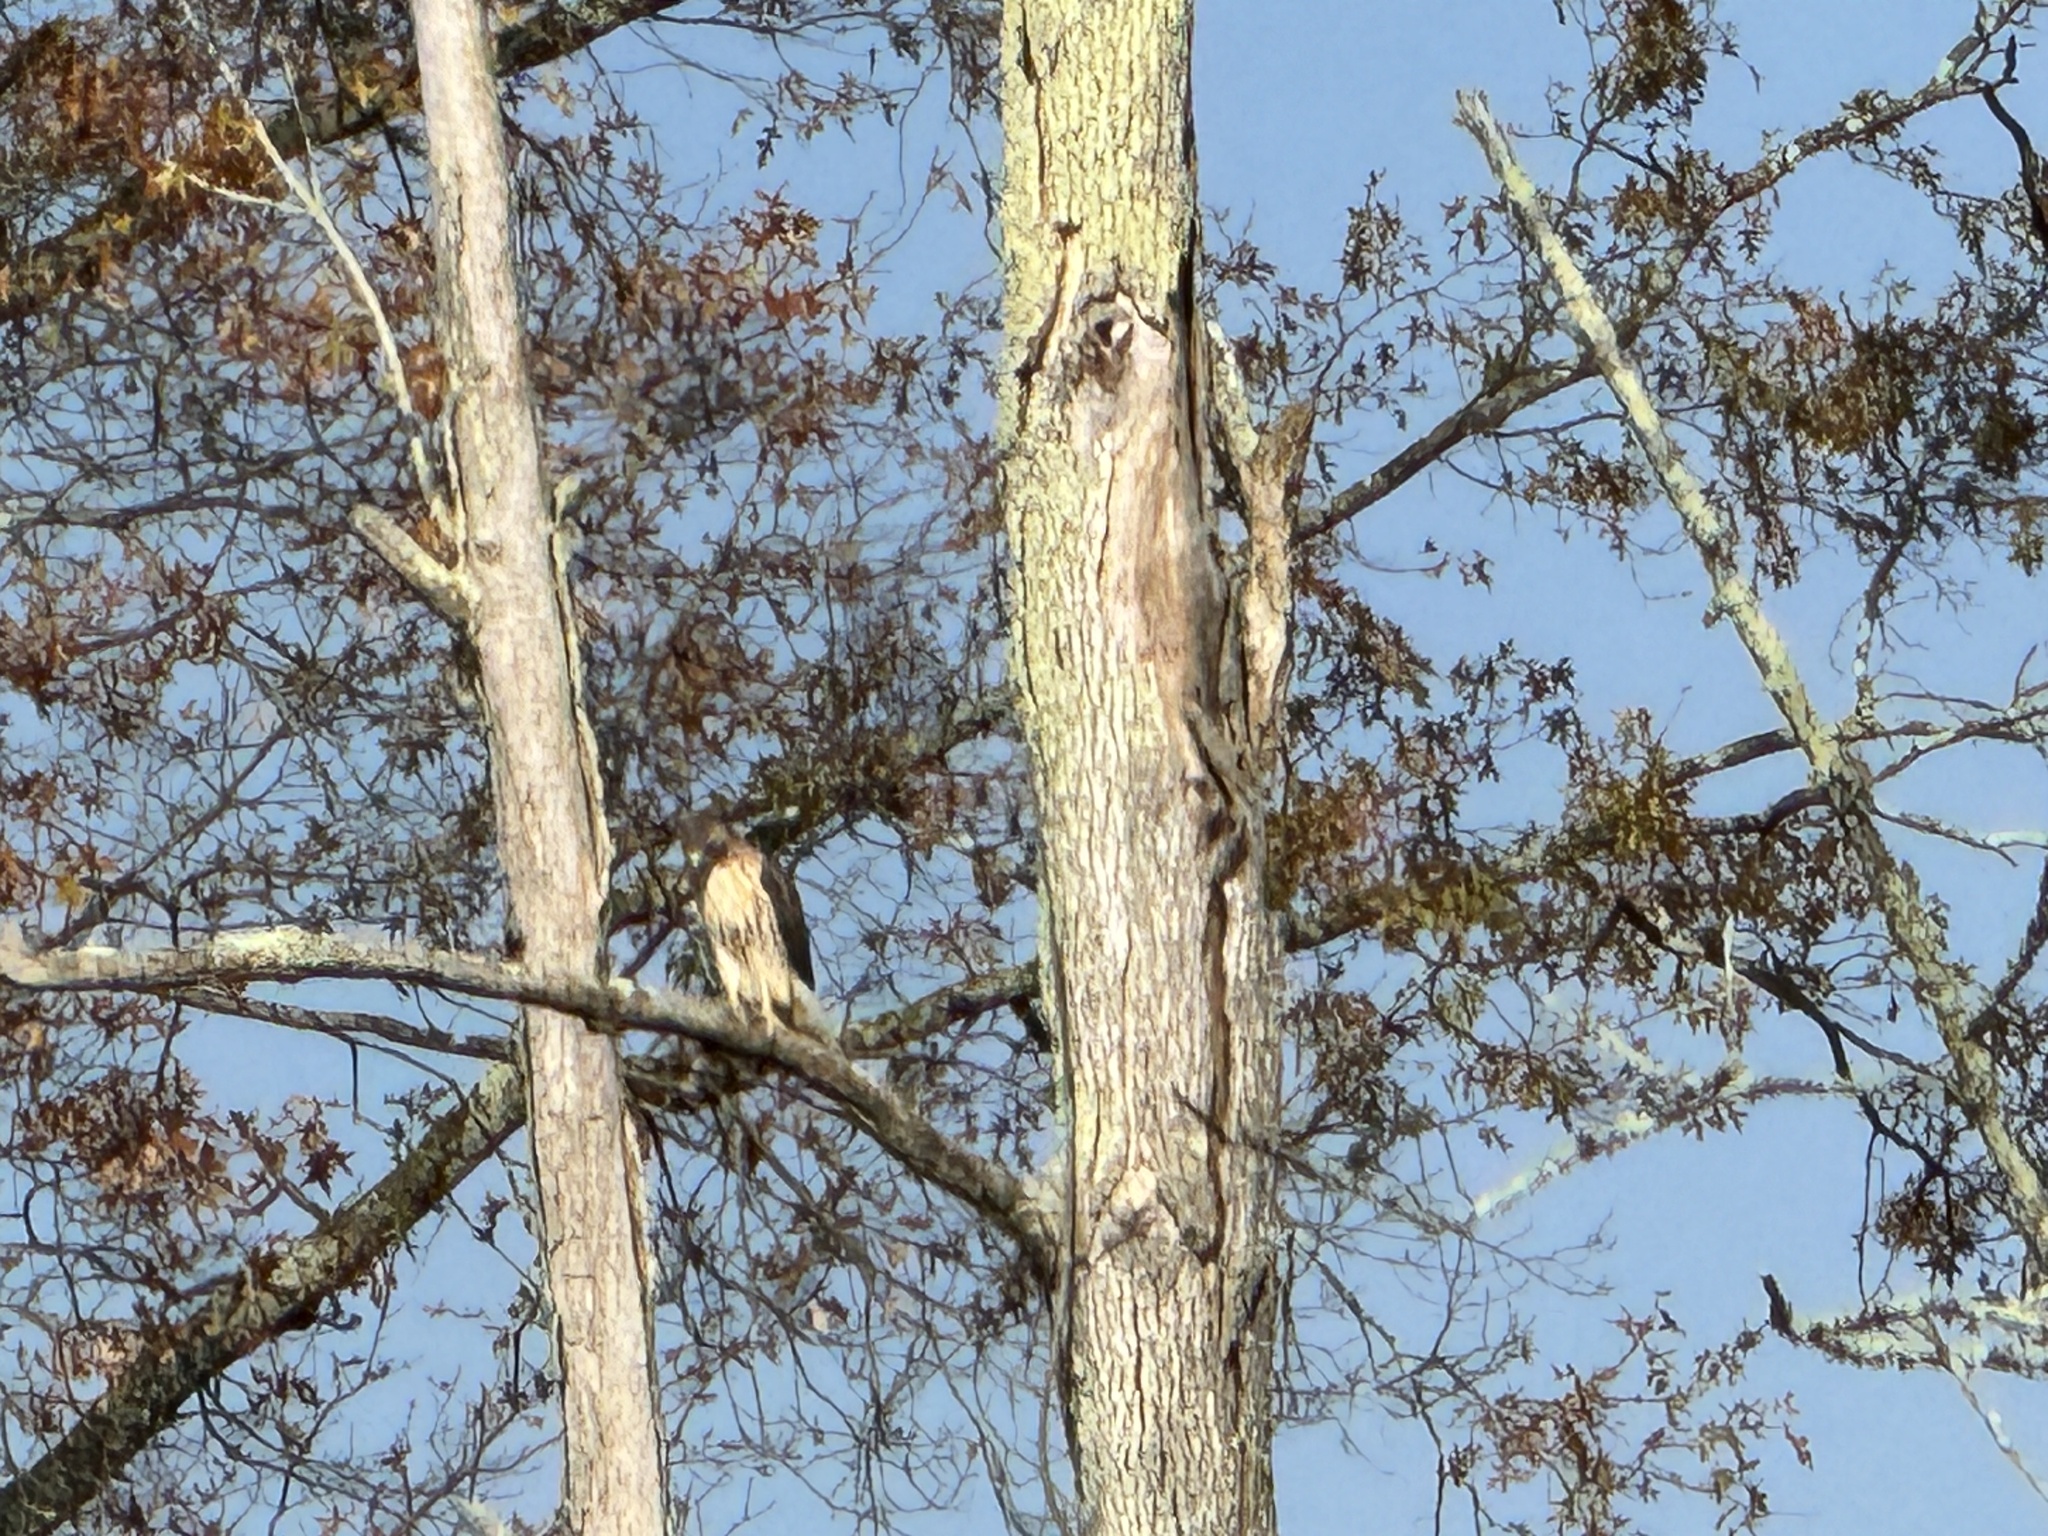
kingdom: Animalia
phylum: Chordata
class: Aves
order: Accipitriformes
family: Accipitridae
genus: Buteo
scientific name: Buteo jamaicensis
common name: Red-tailed hawk
